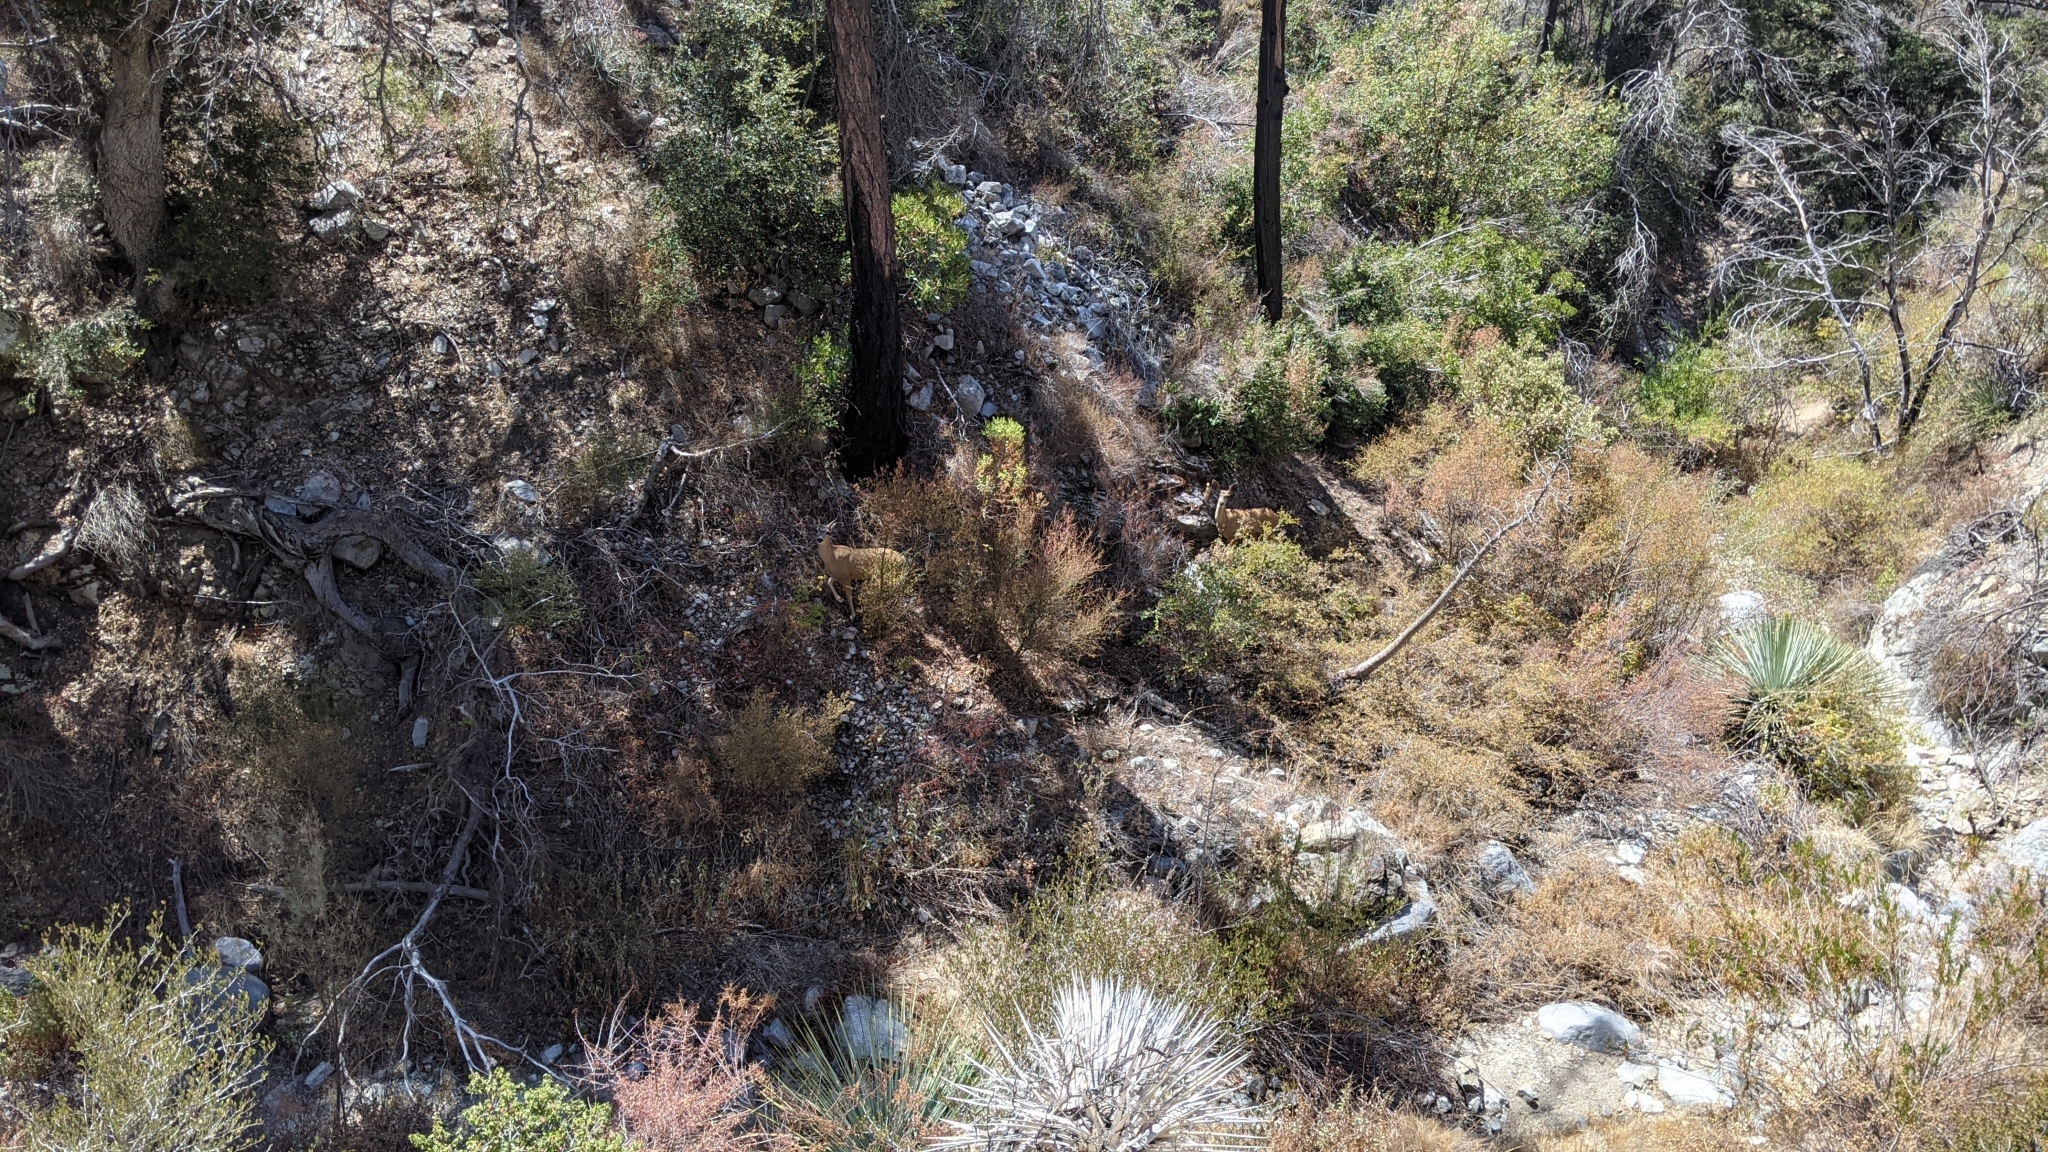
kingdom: Animalia
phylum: Chordata
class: Mammalia
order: Artiodactyla
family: Cervidae
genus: Odocoileus
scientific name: Odocoileus hemionus
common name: Mule deer
